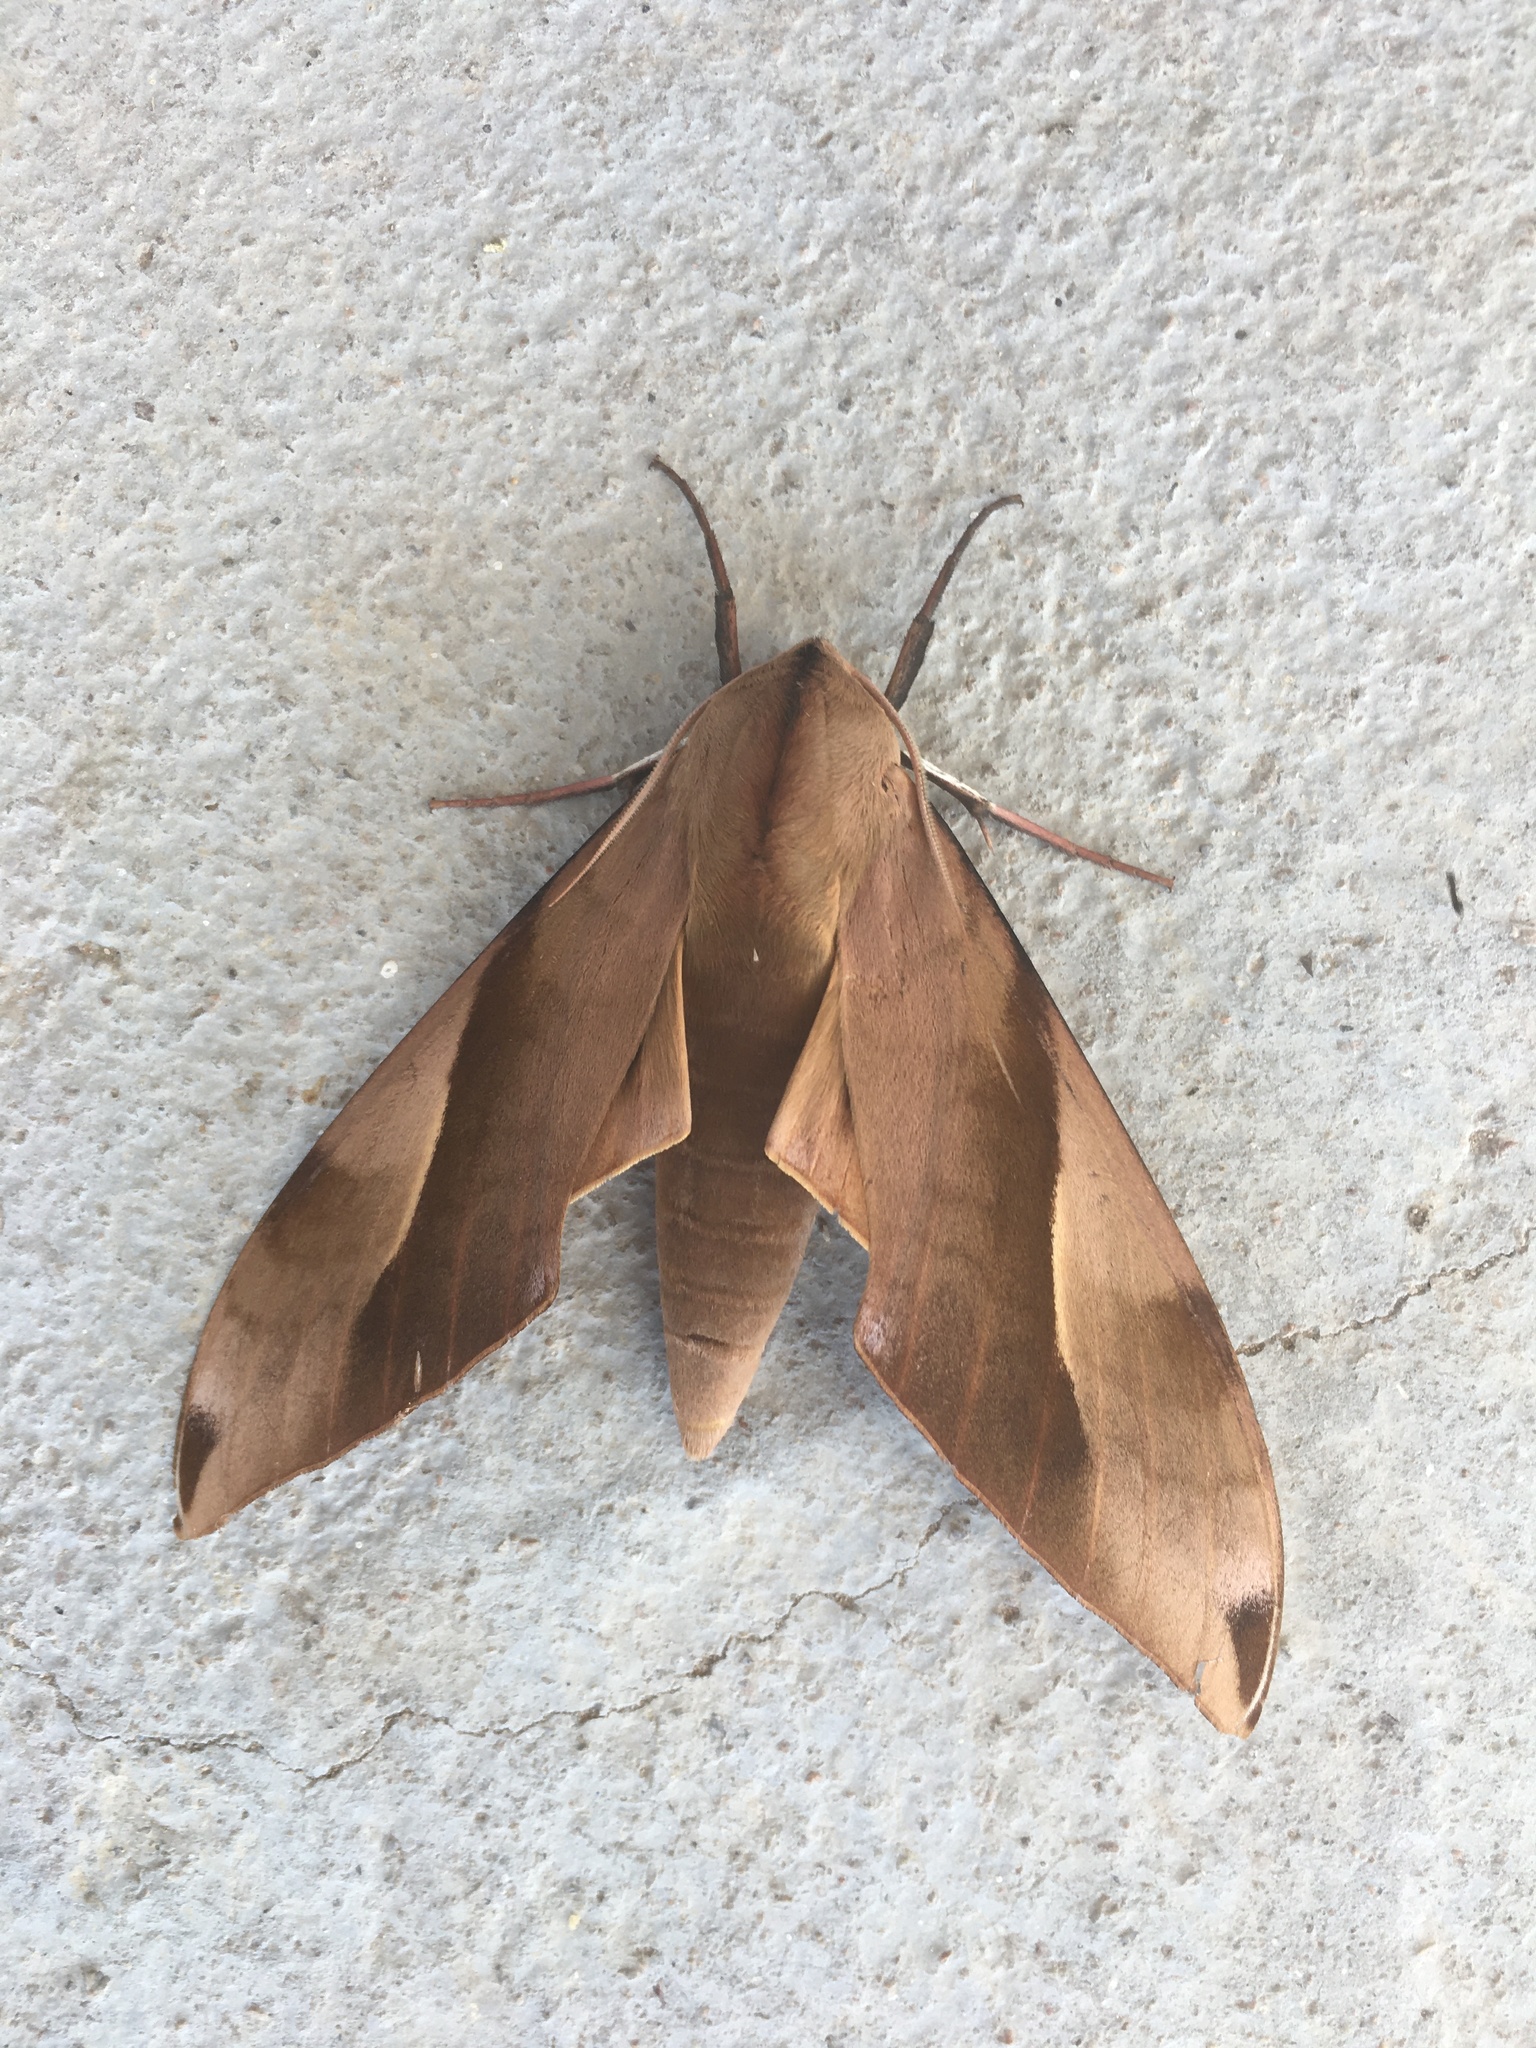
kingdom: Animalia
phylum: Arthropoda
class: Insecta
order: Lepidoptera
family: Sphingidae
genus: Clanis
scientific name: Clanis titan
